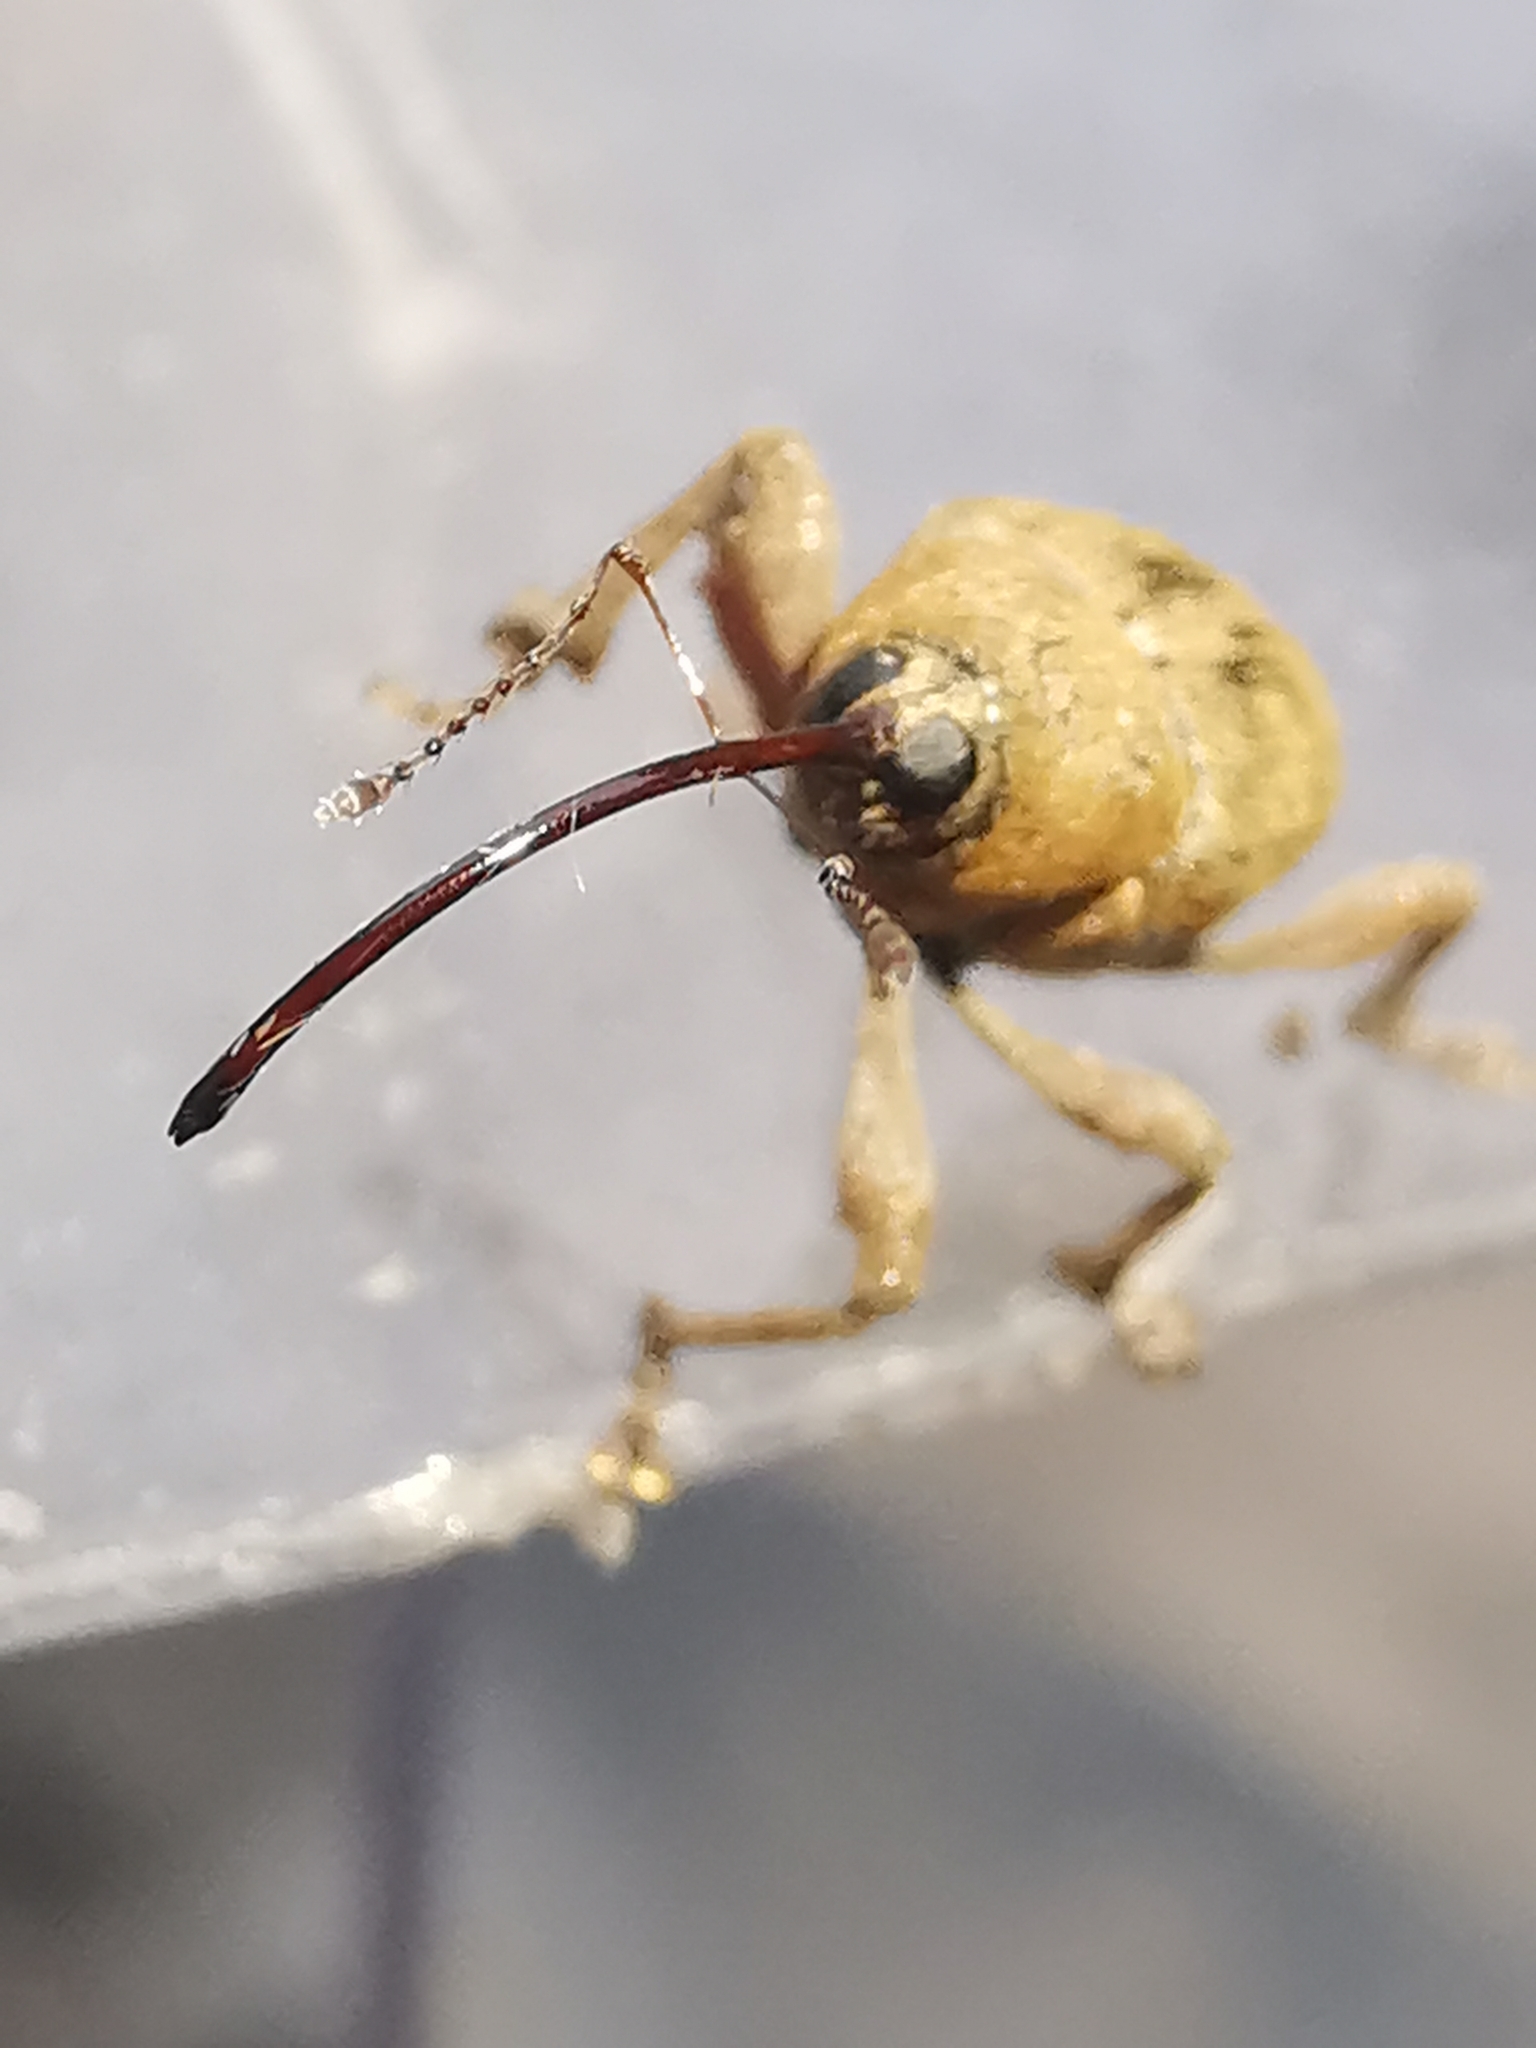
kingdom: Animalia
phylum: Arthropoda
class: Insecta
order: Coleoptera
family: Curculionidae
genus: Curculio
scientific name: Curculio glandium
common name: Acorn weevil
